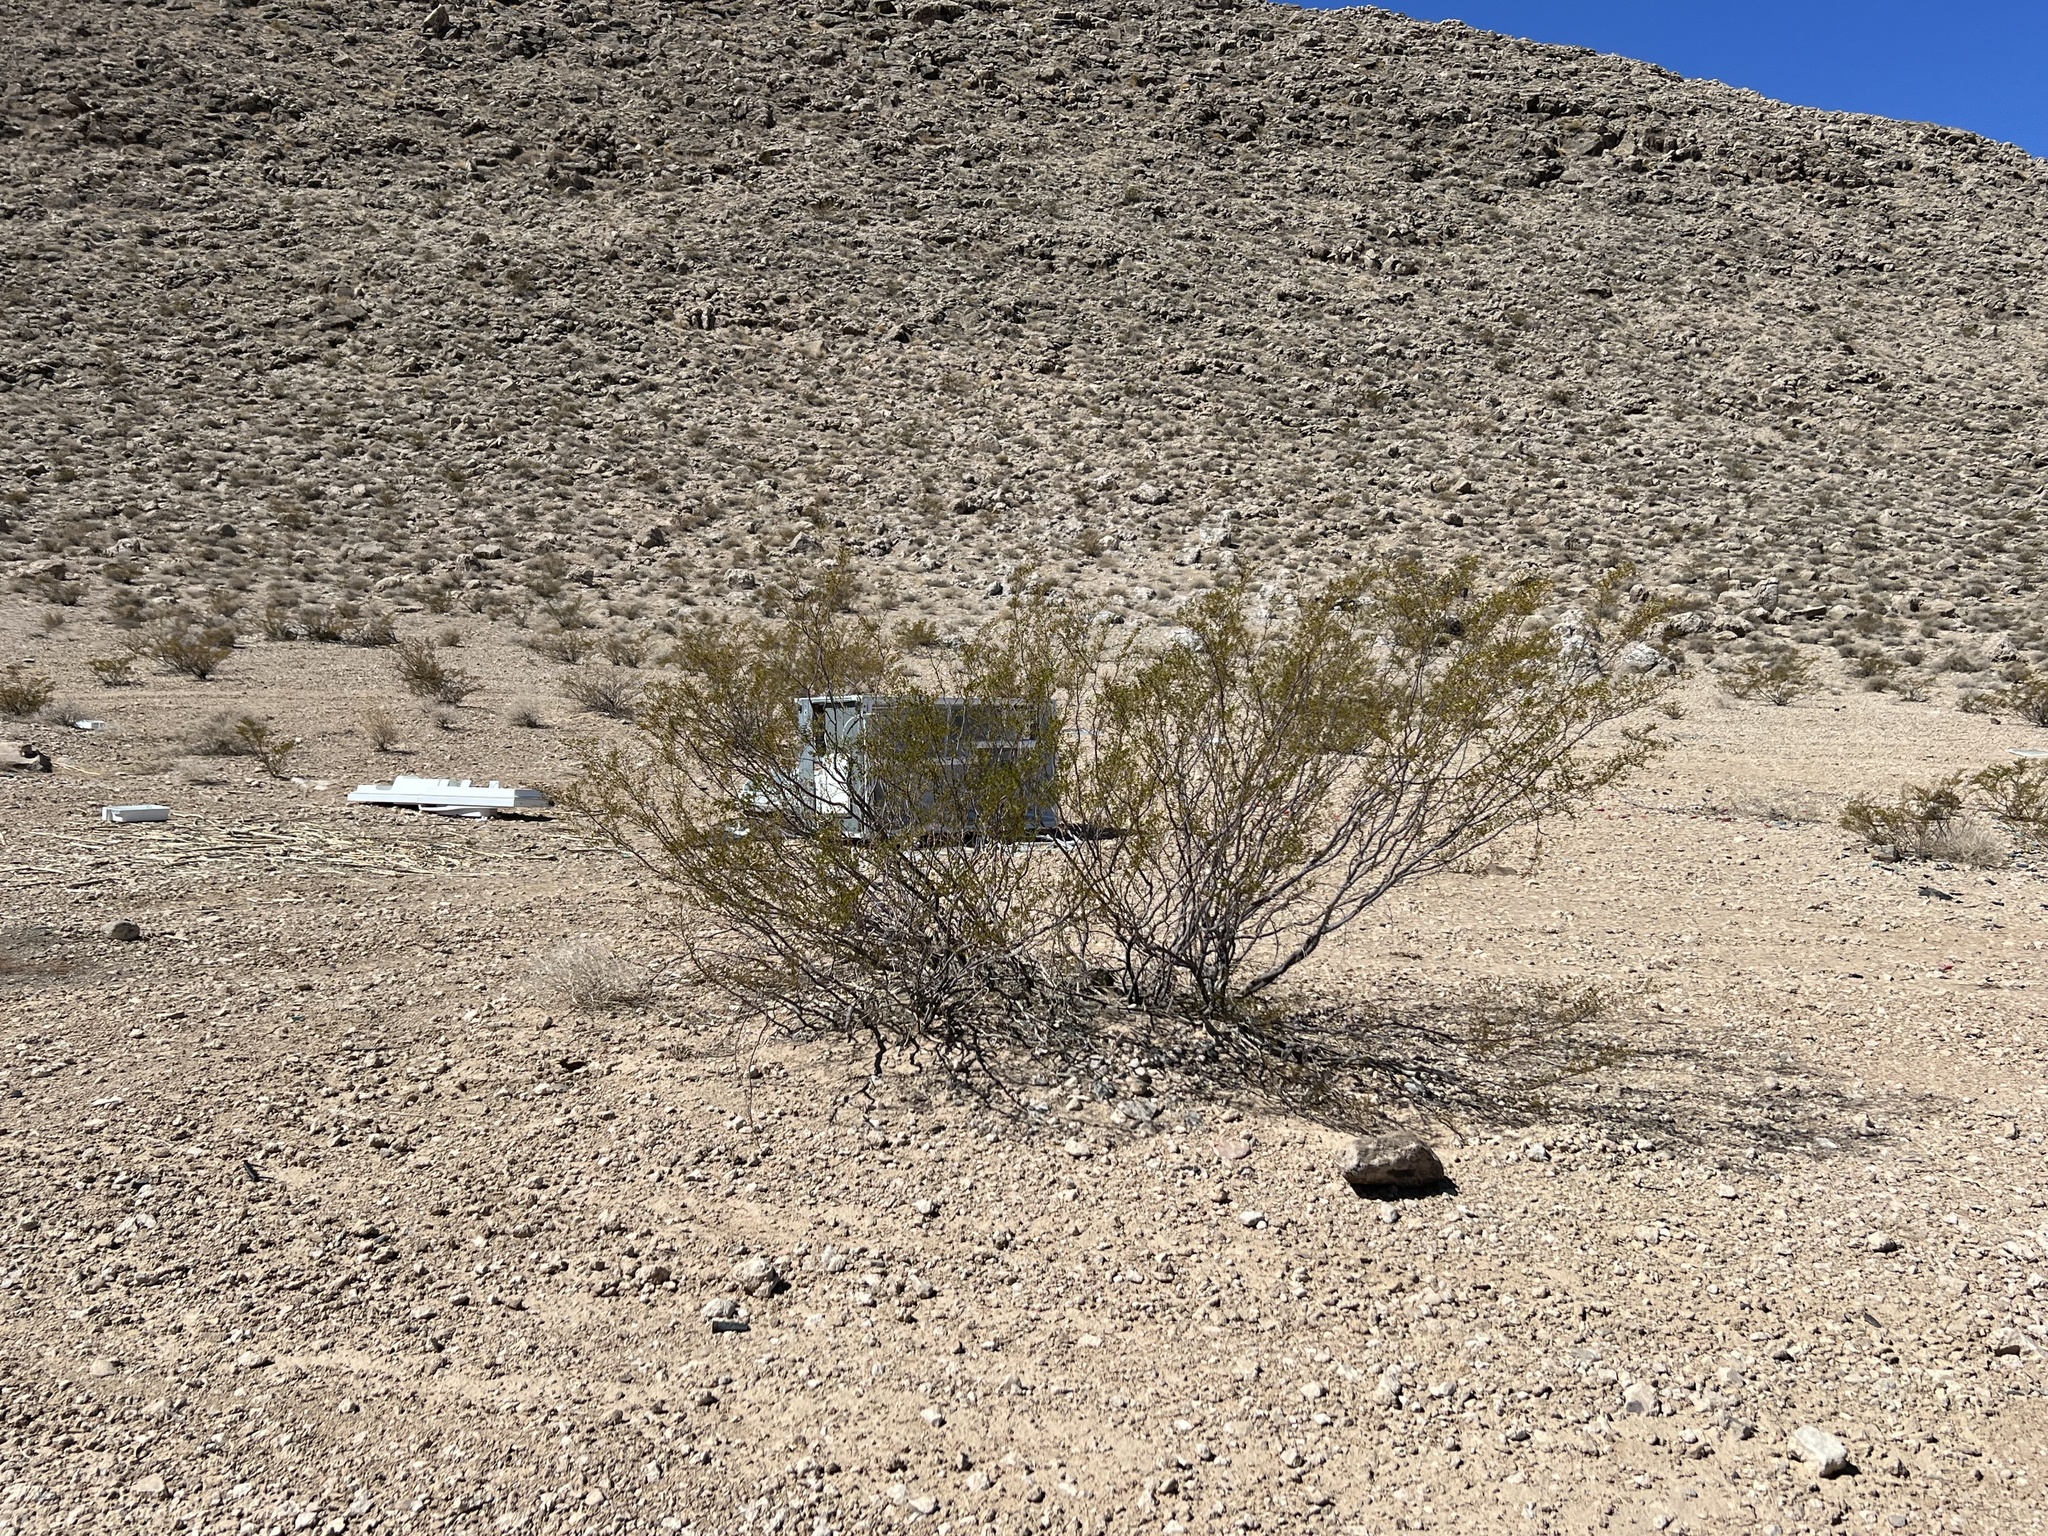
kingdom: Plantae
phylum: Tracheophyta
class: Magnoliopsida
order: Zygophyllales
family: Zygophyllaceae
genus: Larrea
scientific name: Larrea tridentata
